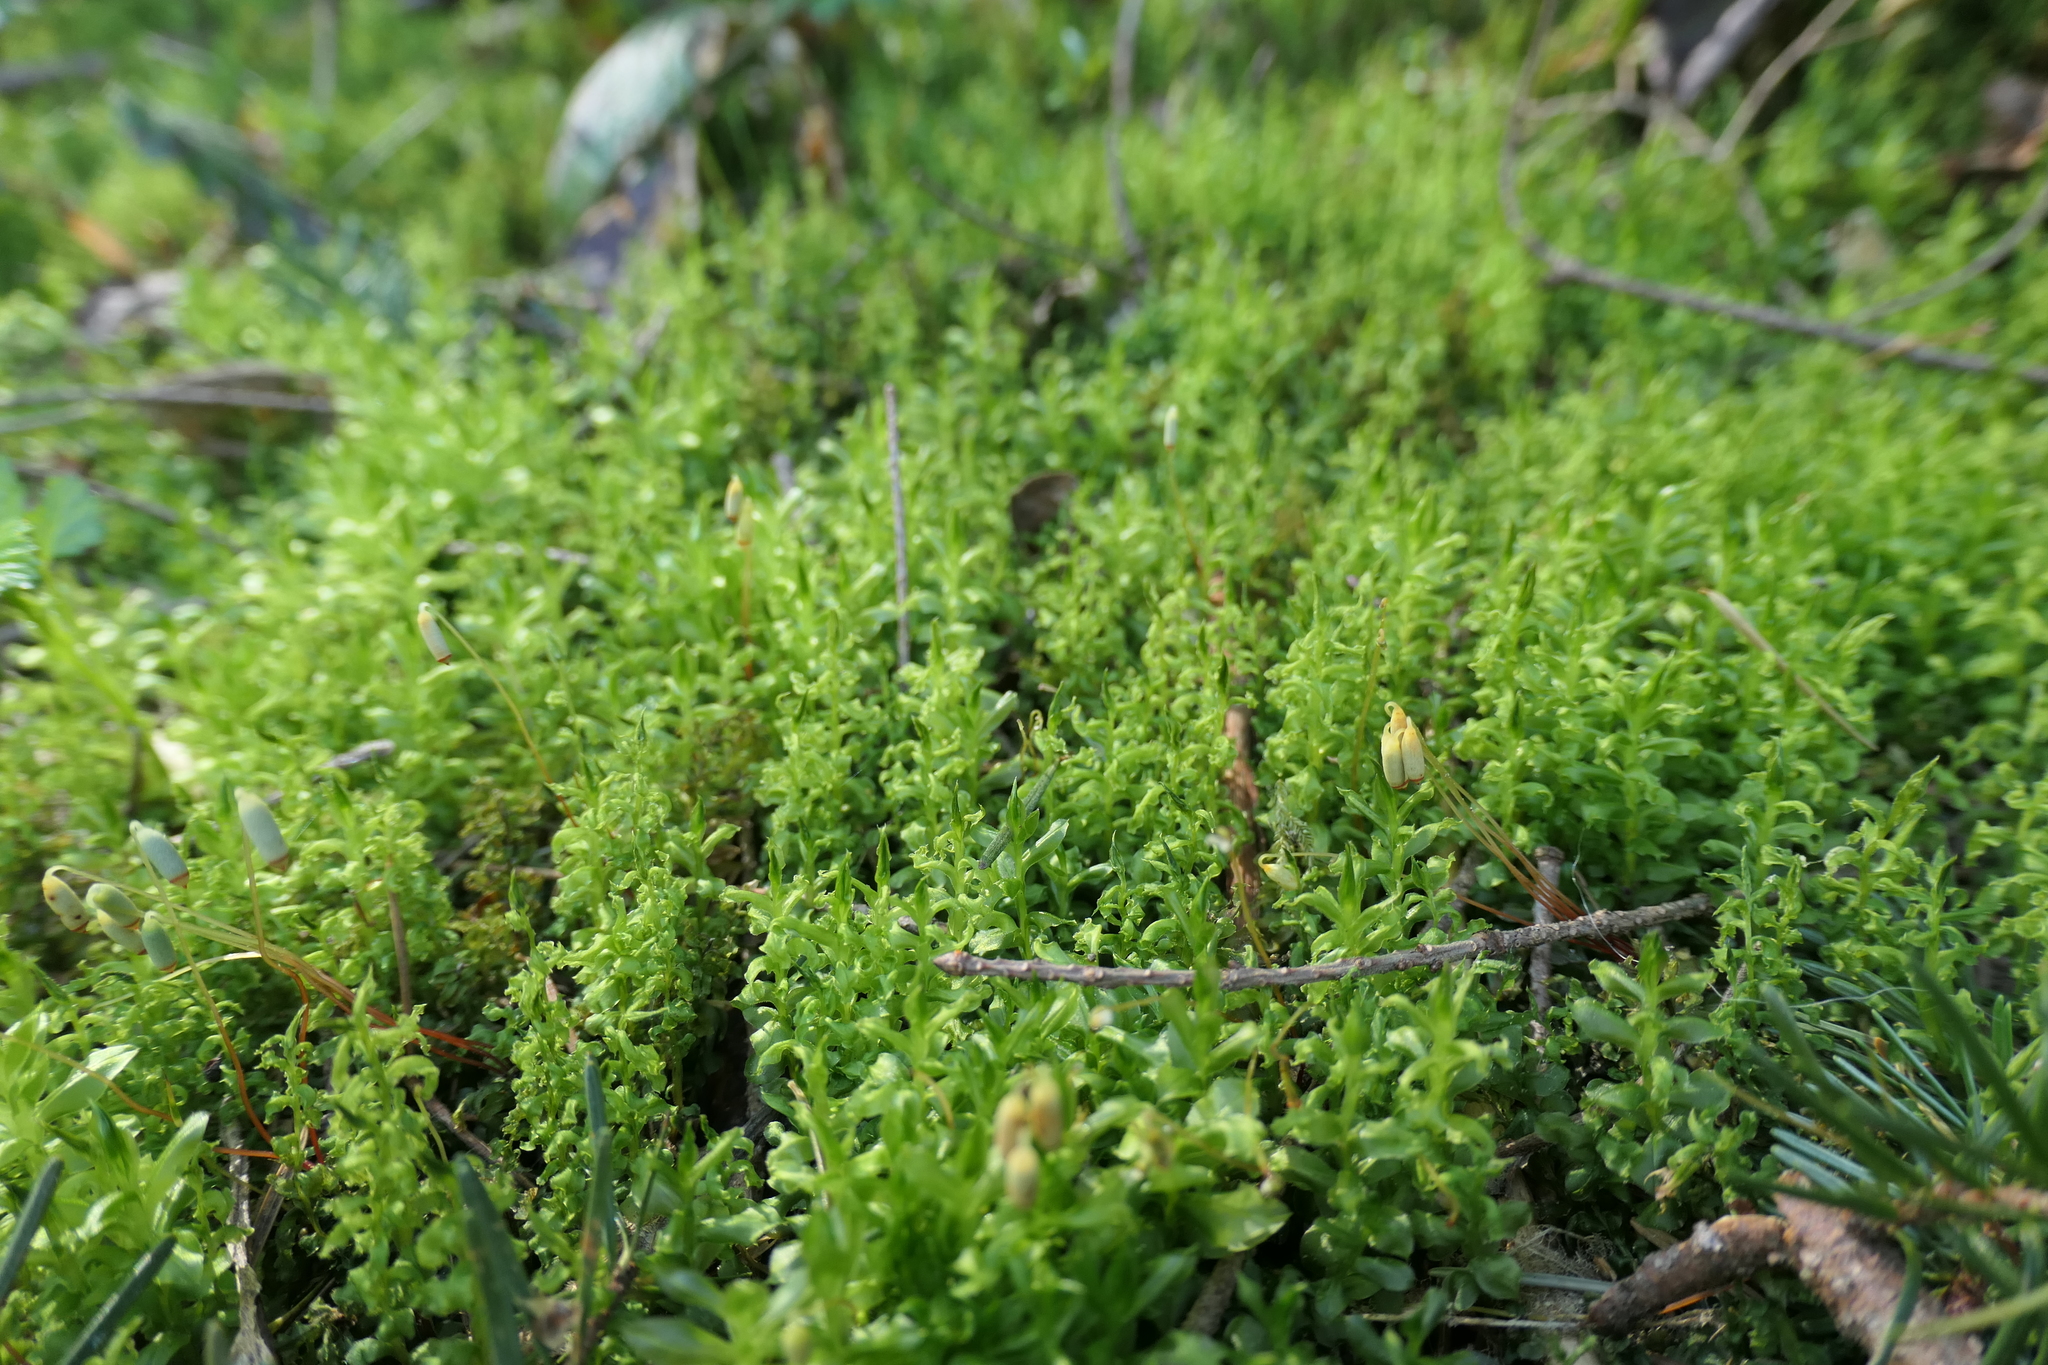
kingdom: Plantae
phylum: Bryophyta
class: Bryopsida
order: Bryales
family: Mniaceae
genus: Plagiomnium
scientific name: Plagiomnium insigne
